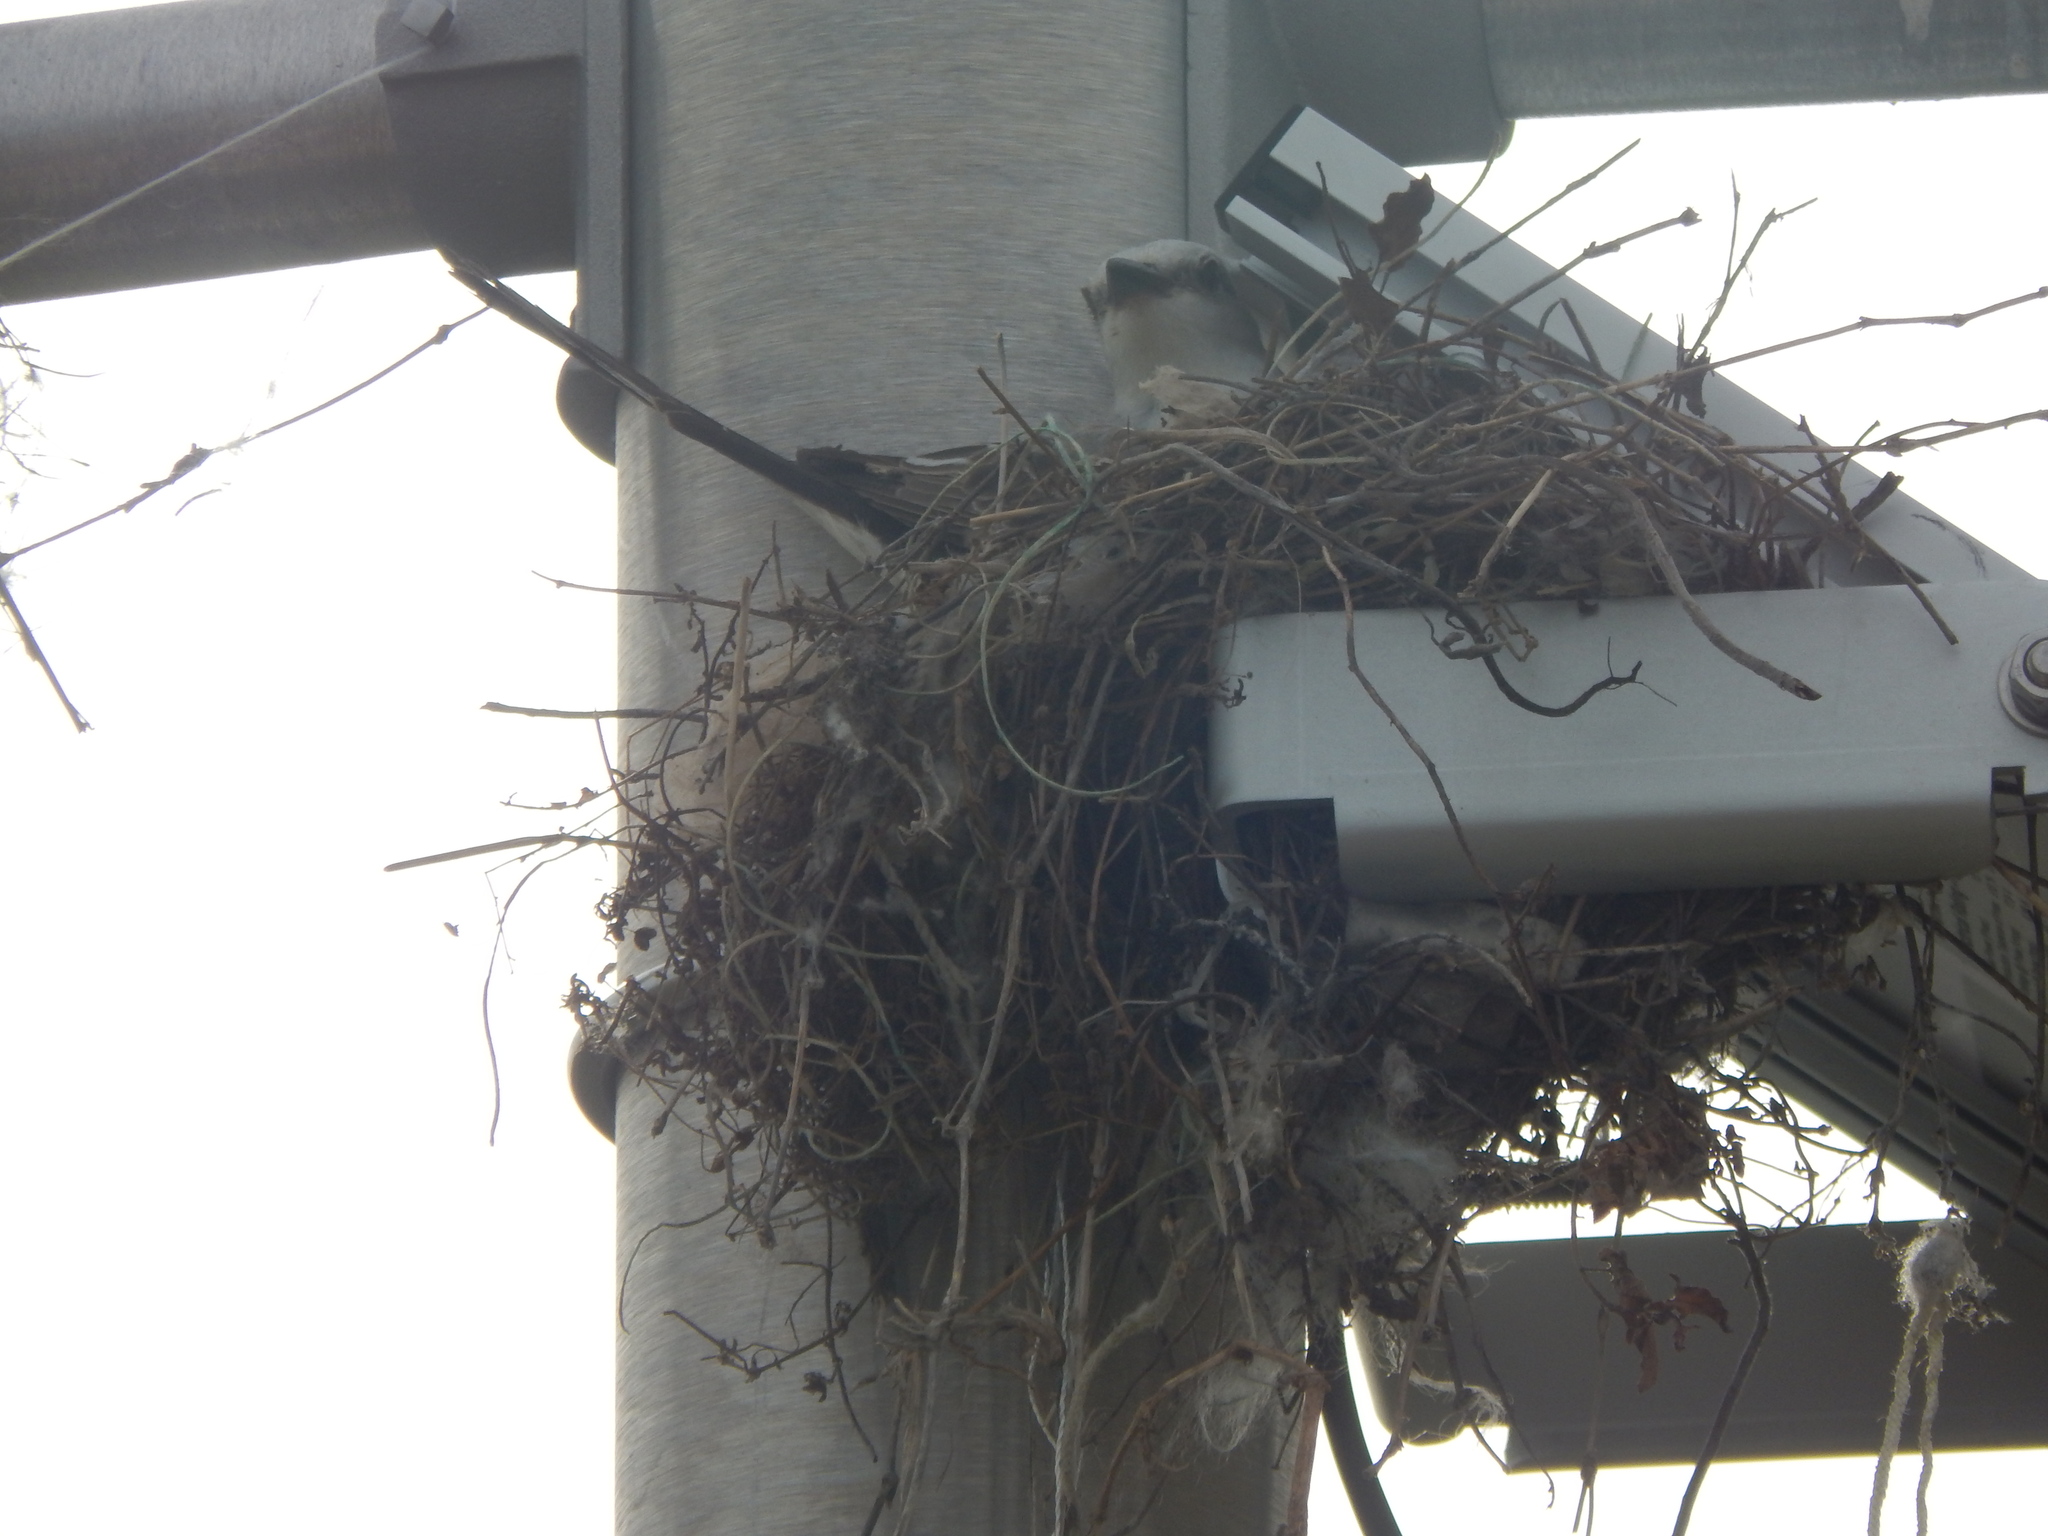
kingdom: Animalia
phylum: Chordata
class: Aves
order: Passeriformes
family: Tyrannidae
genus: Tyrannus
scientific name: Tyrannus forficatus
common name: Scissor-tailed flycatcher
